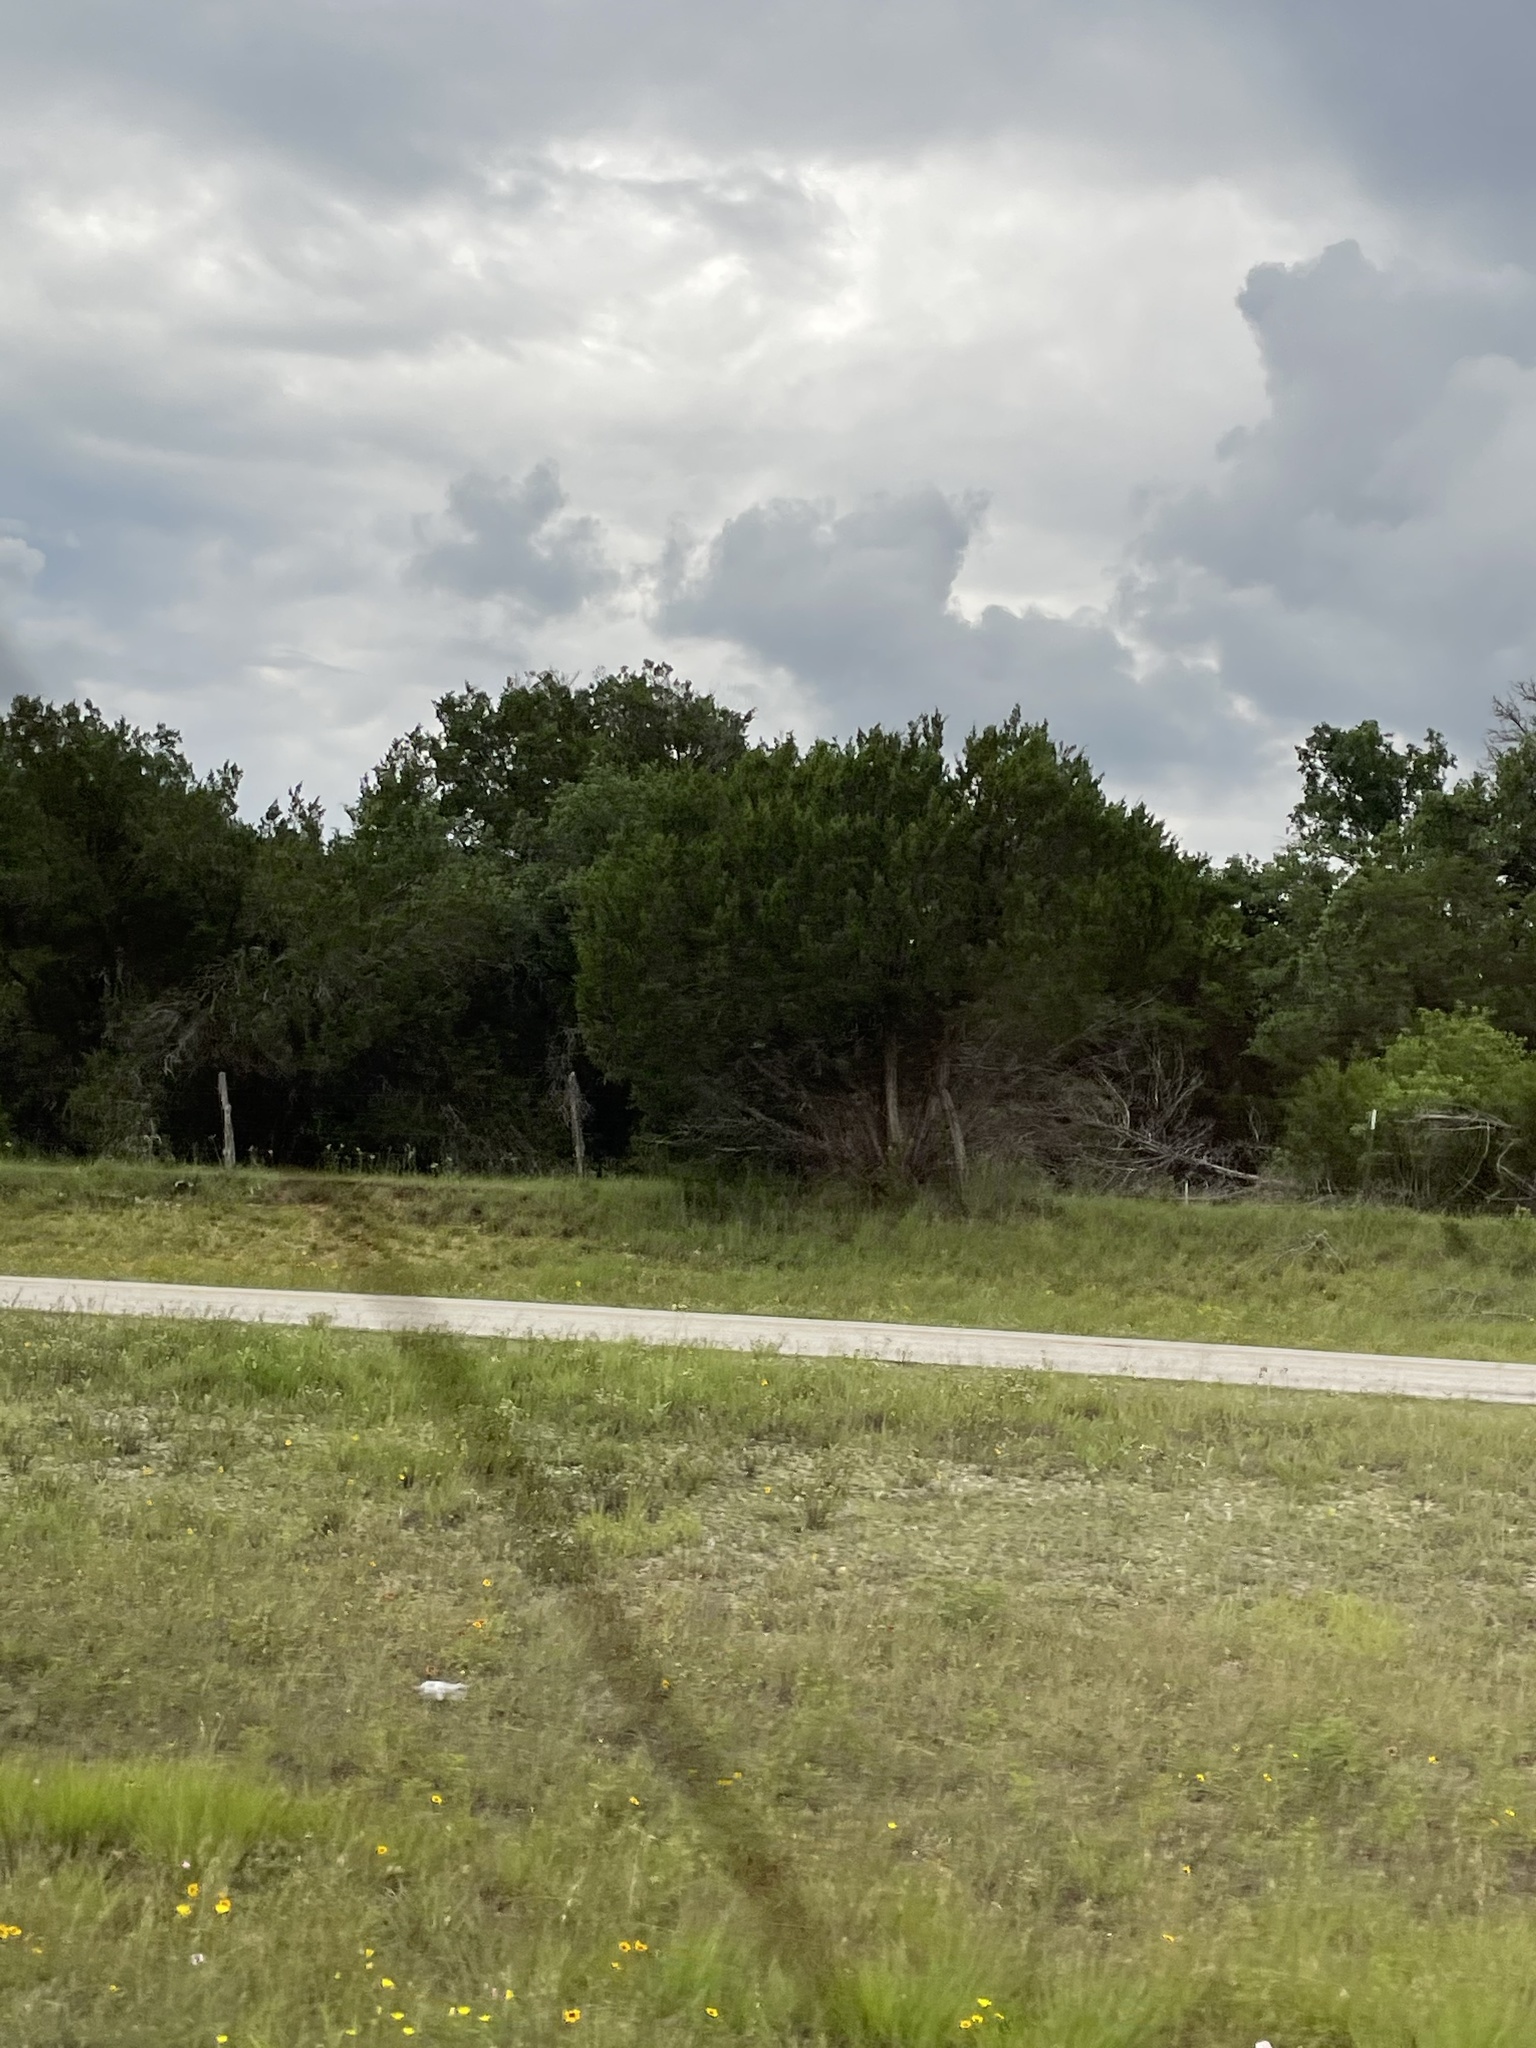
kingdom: Plantae
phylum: Tracheophyta
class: Pinopsida
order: Pinales
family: Cupressaceae
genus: Juniperus
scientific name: Juniperus ashei
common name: Mexican juniper
